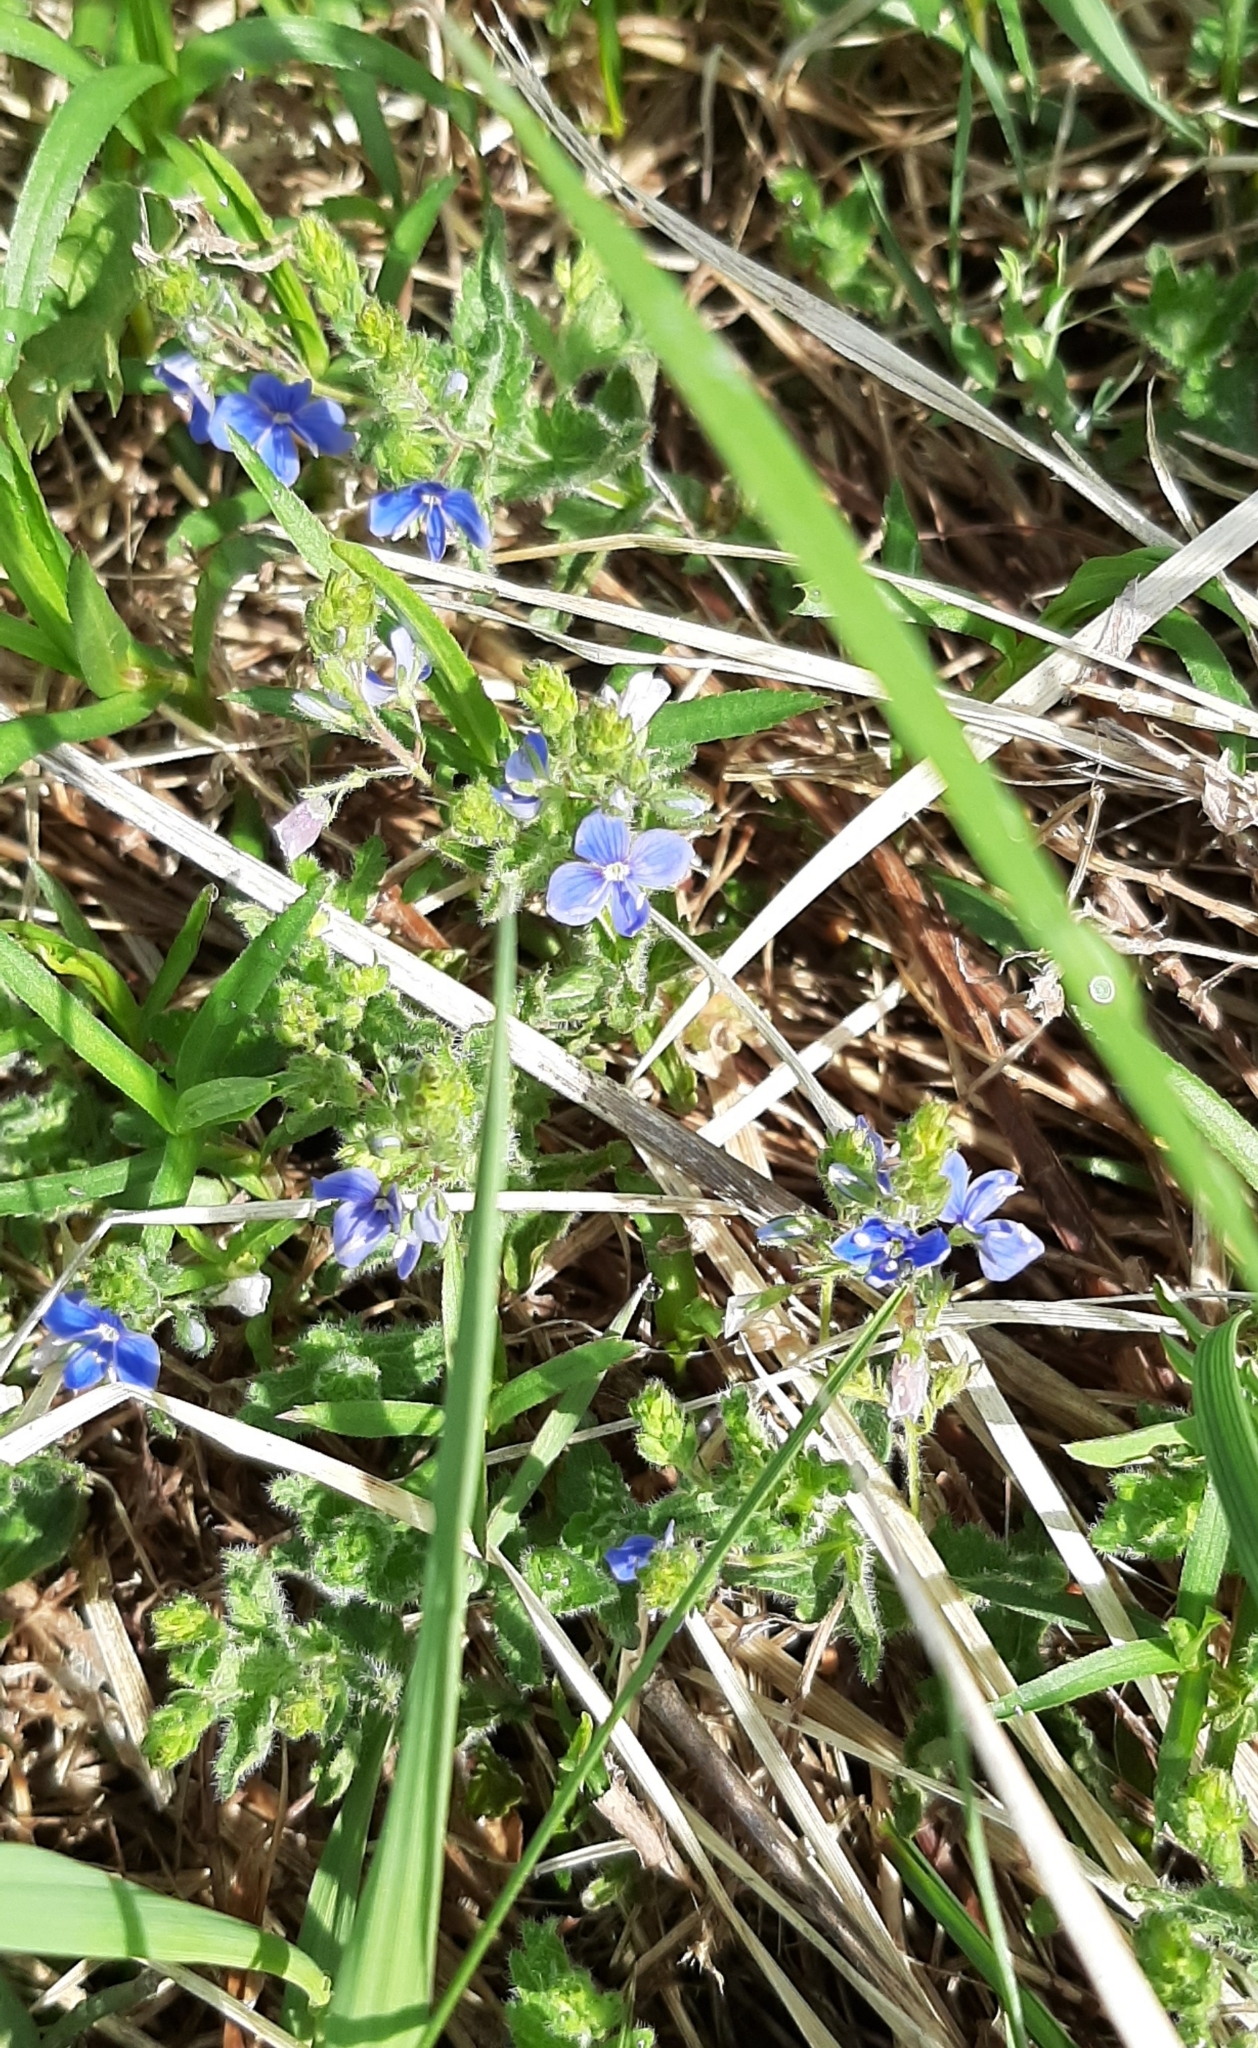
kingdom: Plantae
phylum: Tracheophyta
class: Magnoliopsida
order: Lamiales
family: Plantaginaceae
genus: Veronica
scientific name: Veronica chamaedrys
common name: Germander speedwell
